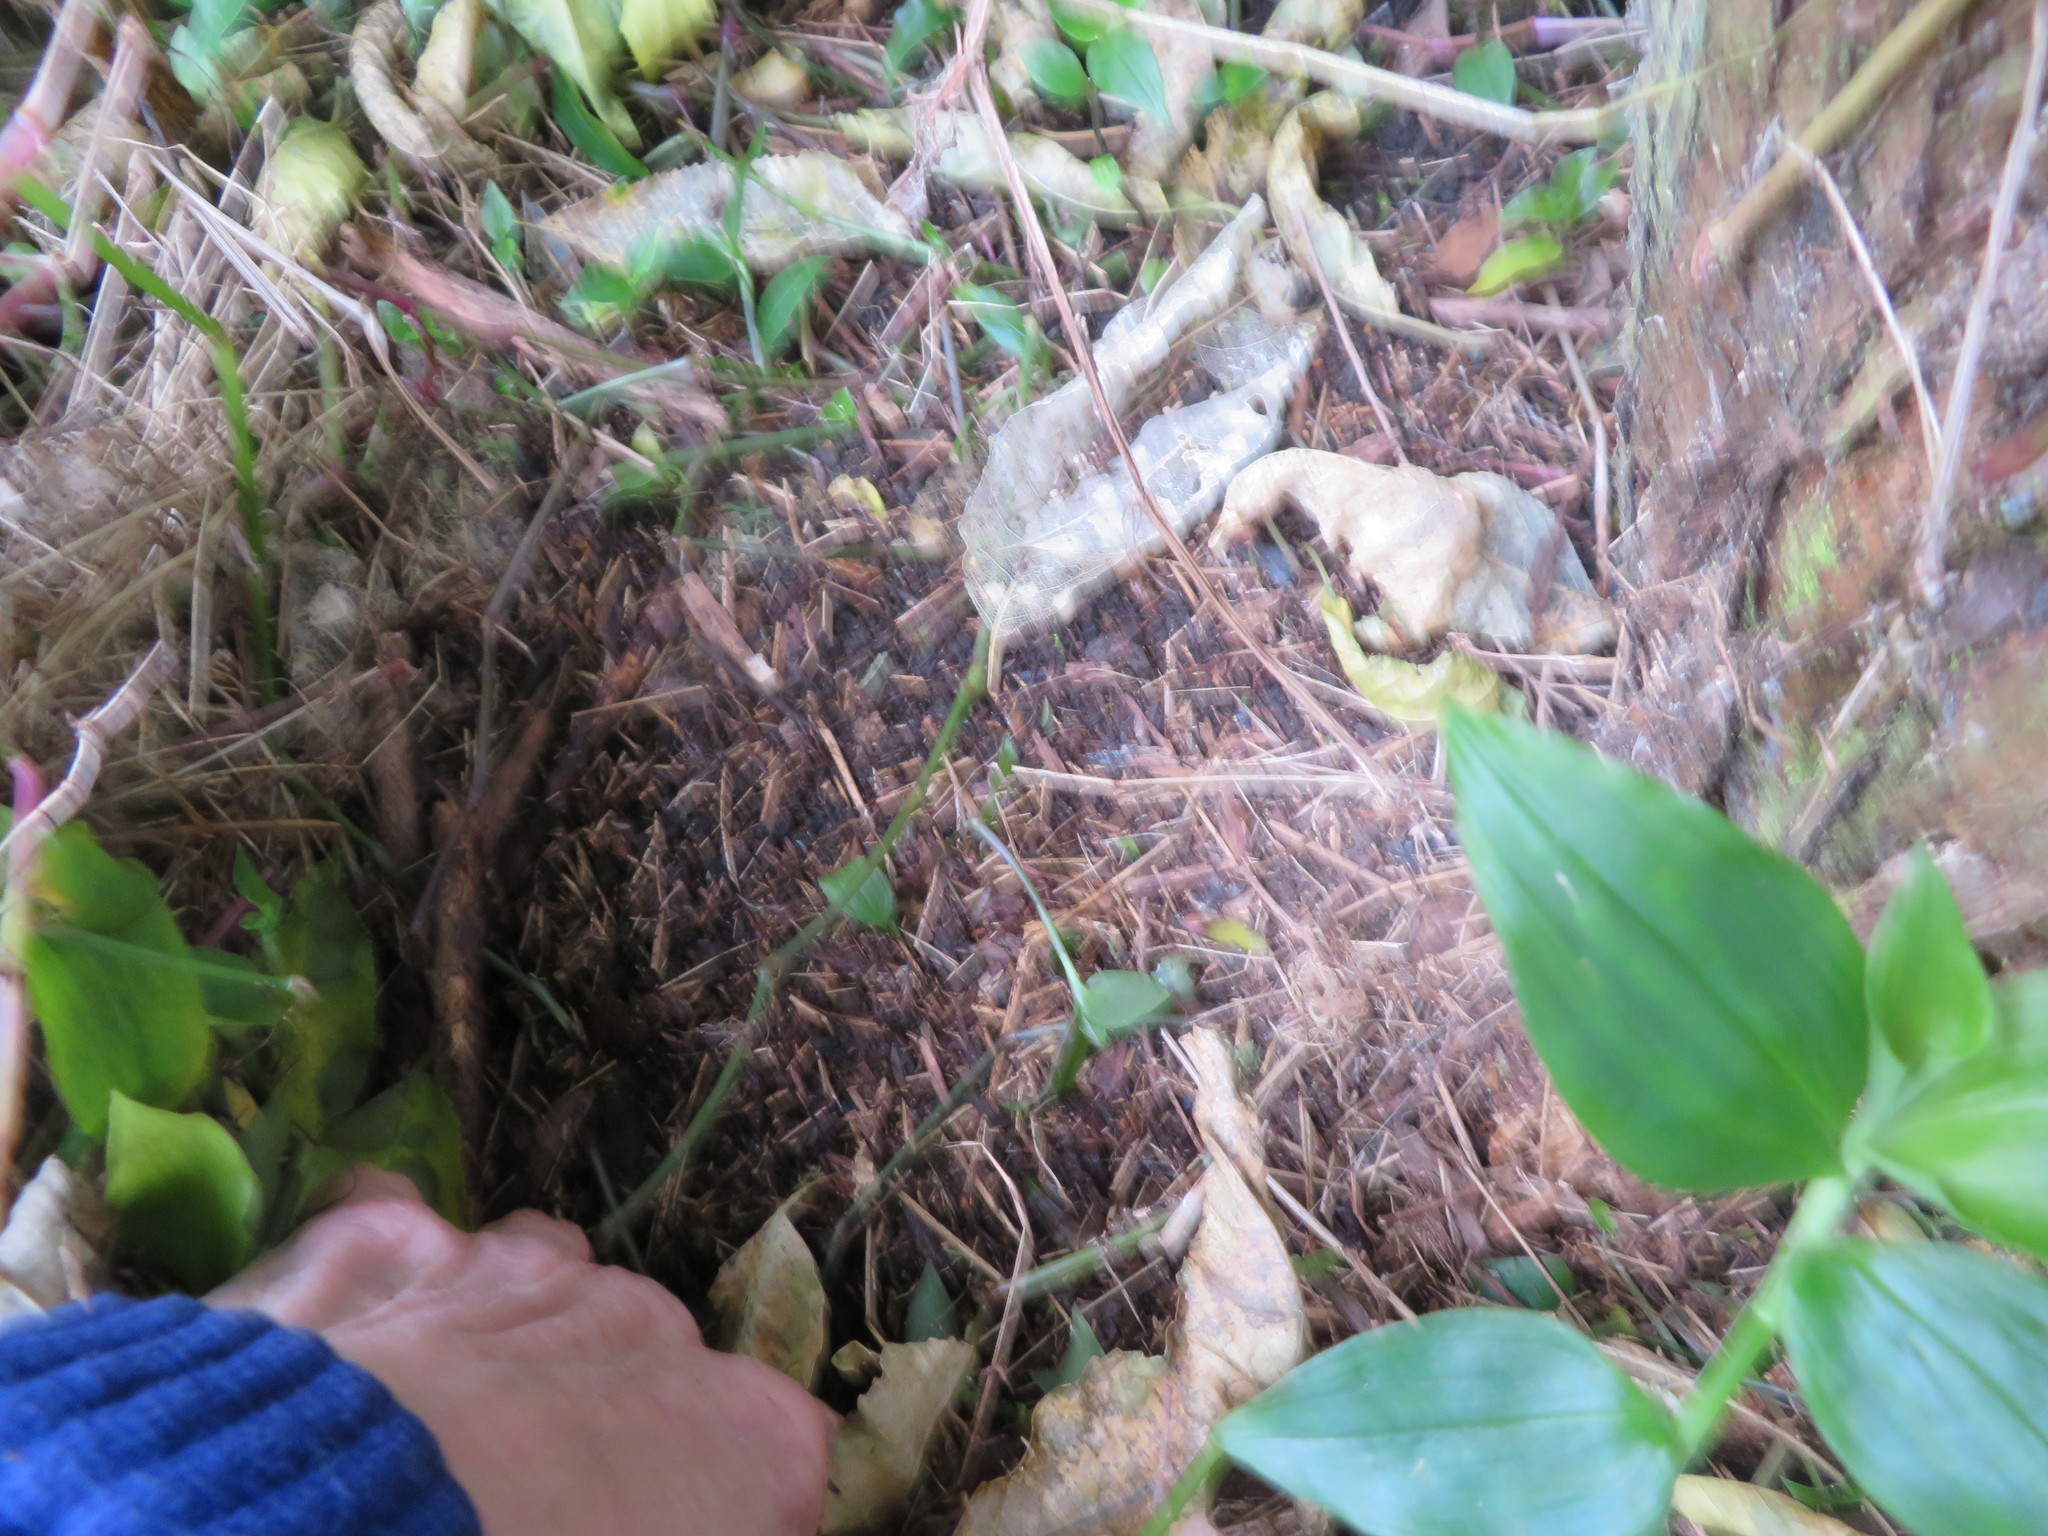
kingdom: Plantae
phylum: Tracheophyta
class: Liliopsida
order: Commelinales
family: Commelinaceae
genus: Tradescantia
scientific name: Tradescantia fluminensis
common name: Wandering-jew
